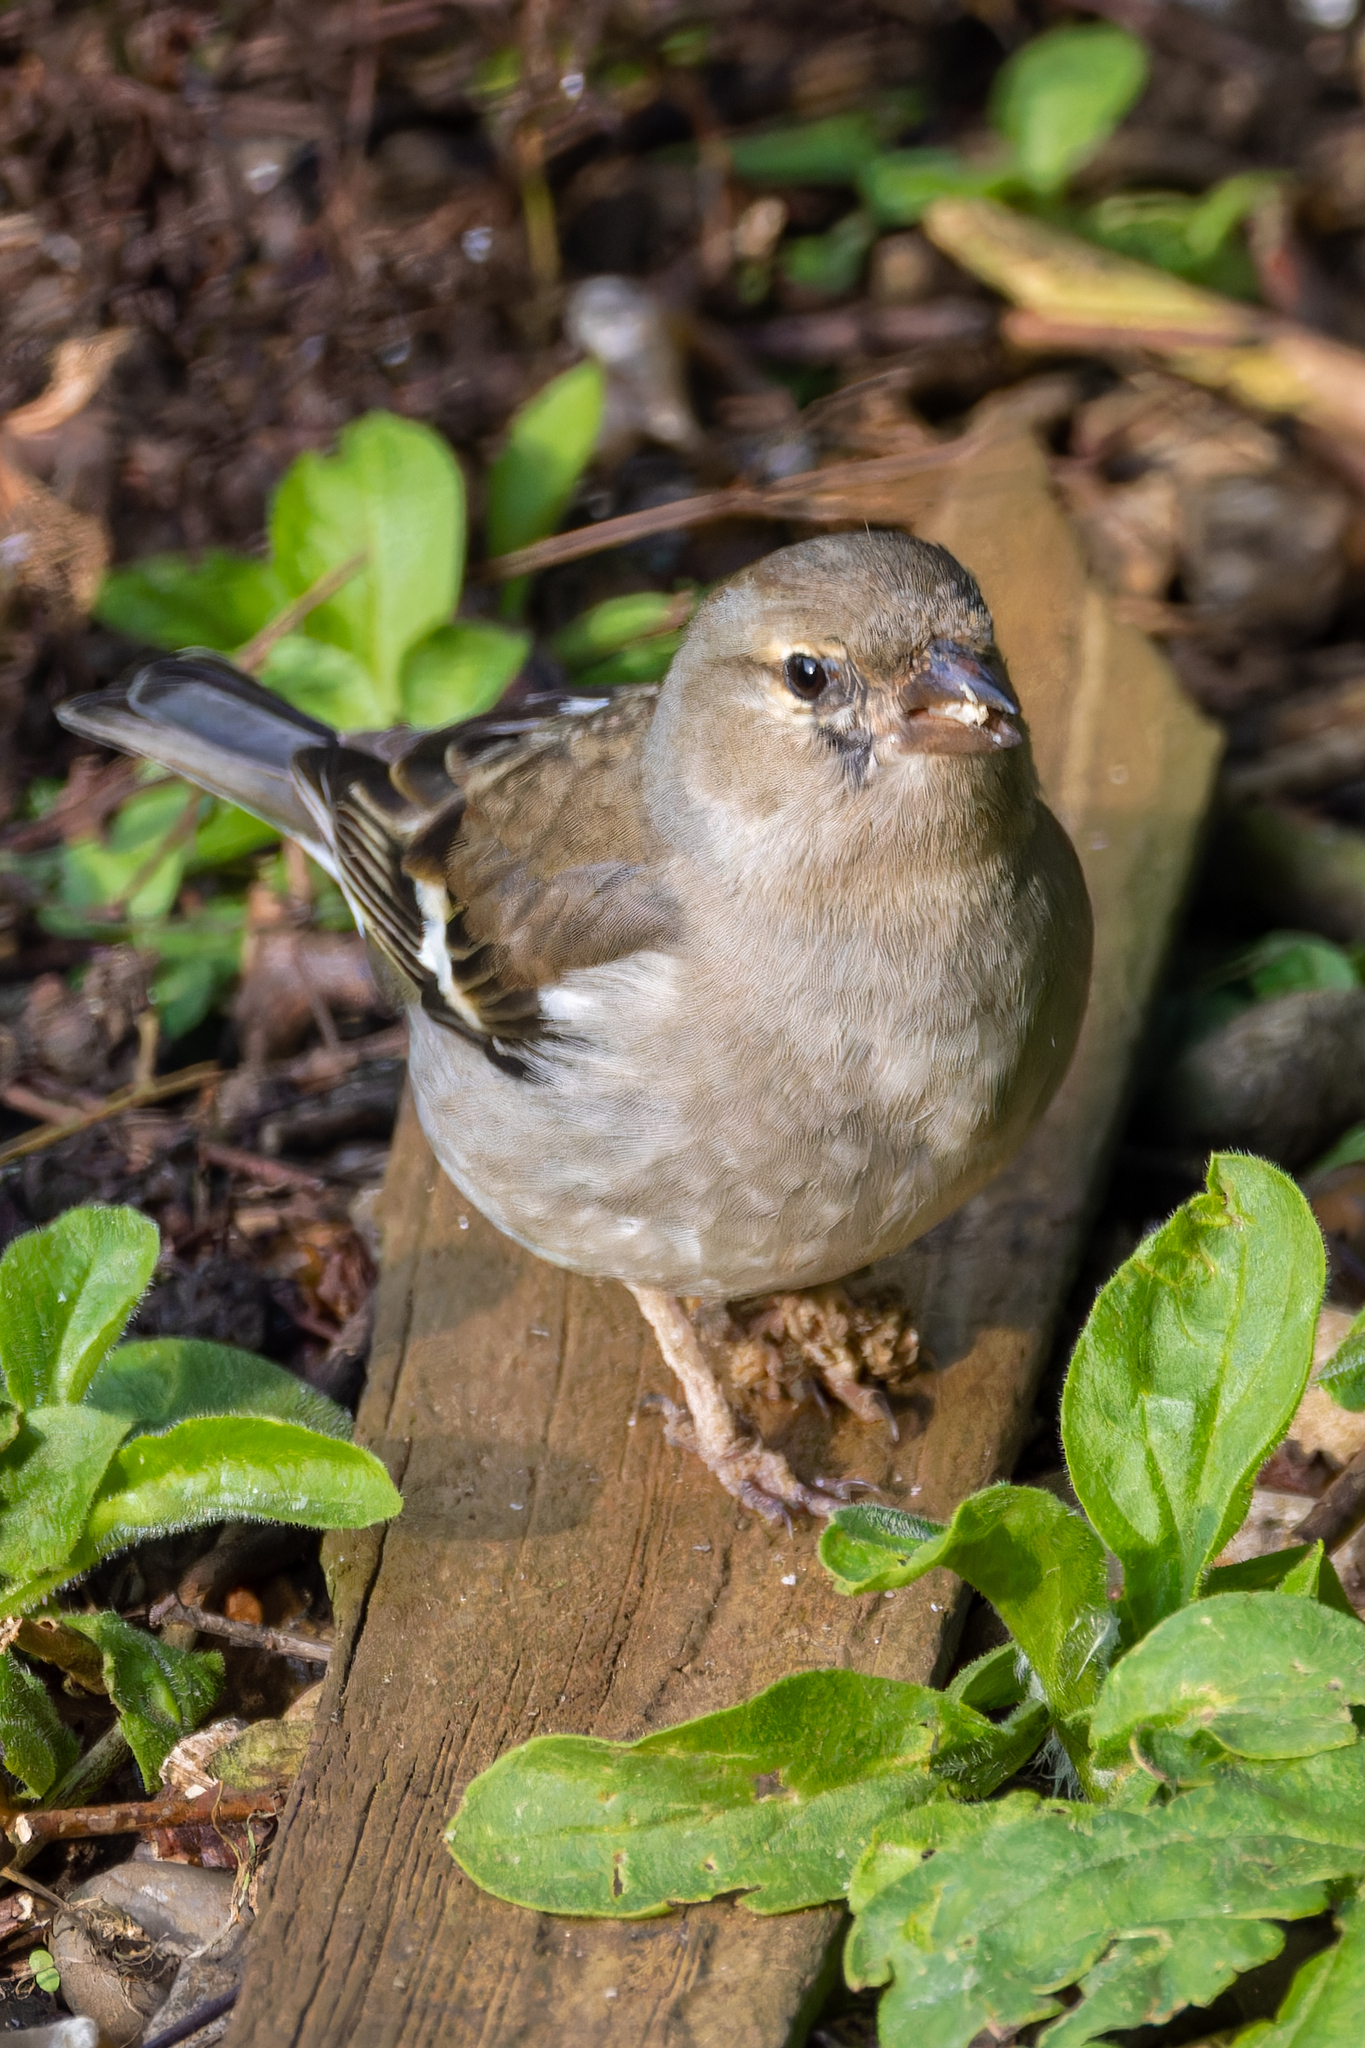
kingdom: Animalia
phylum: Chordata
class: Aves
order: Passeriformes
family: Fringillidae
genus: Fringilla
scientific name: Fringilla coelebs
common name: Common chaffinch
